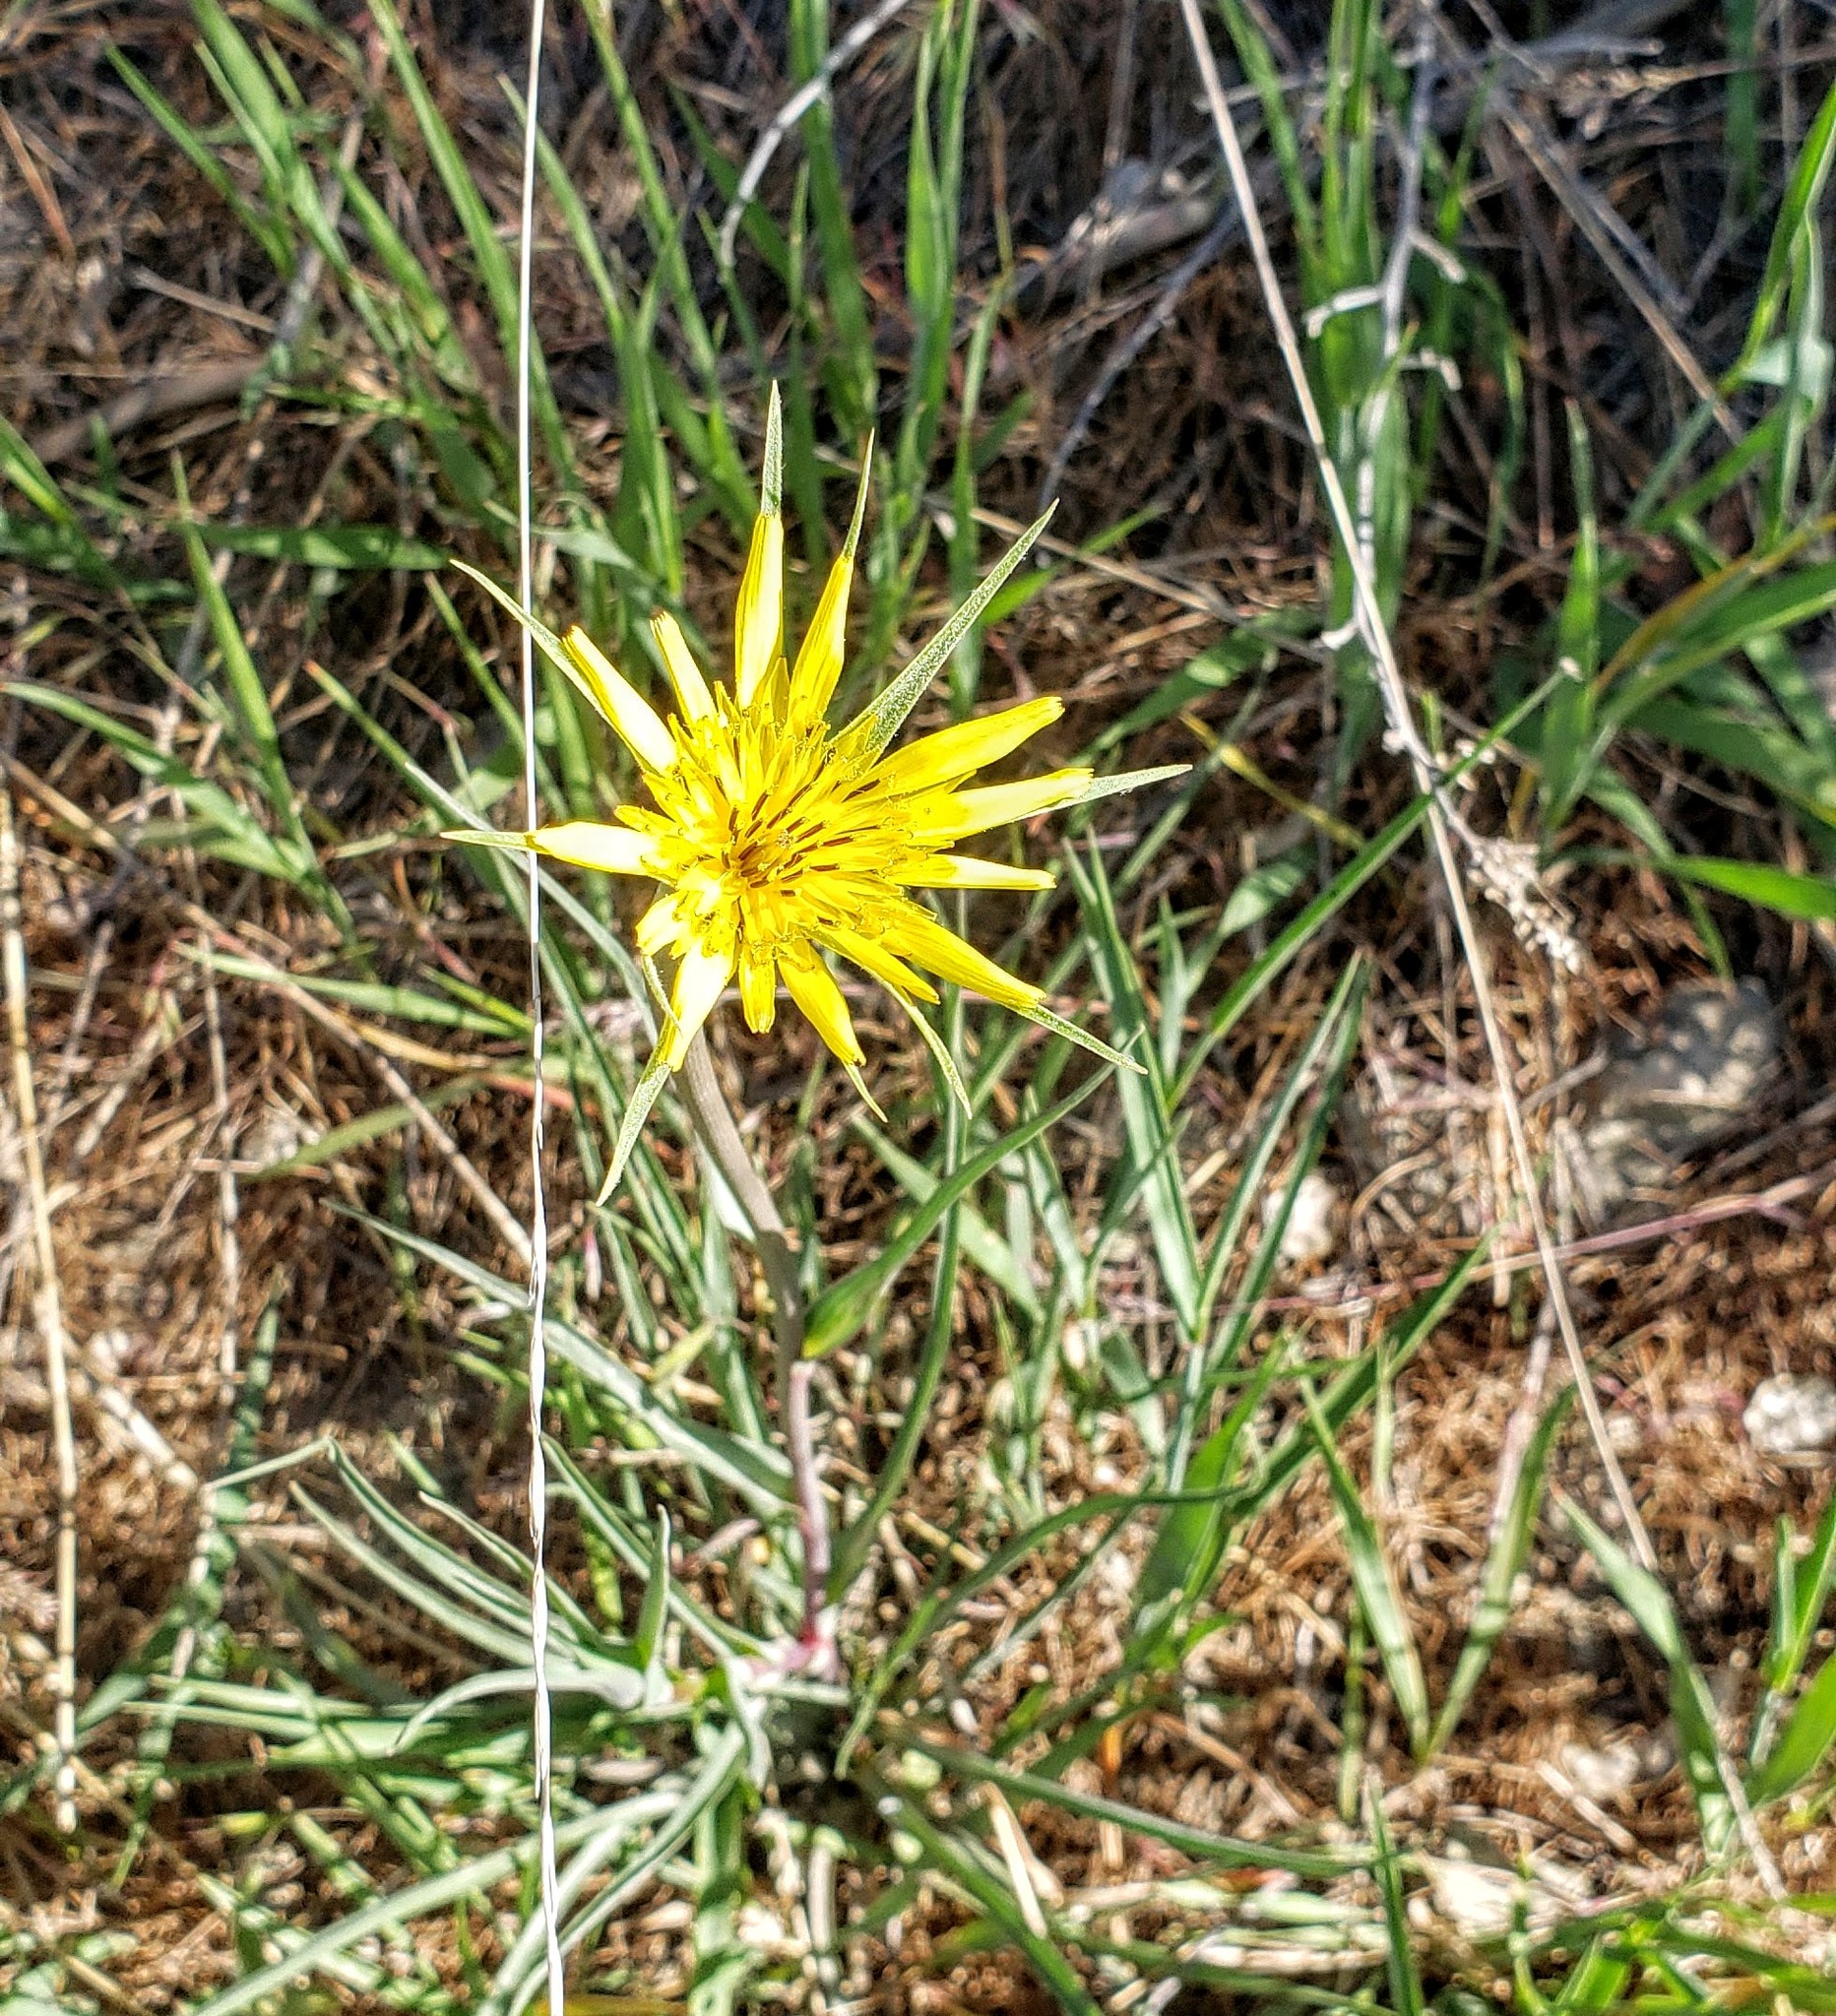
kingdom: Plantae
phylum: Tracheophyta
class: Magnoliopsida
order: Asterales
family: Asteraceae
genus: Tragopogon
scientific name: Tragopogon dubius
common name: Yellow salsify
